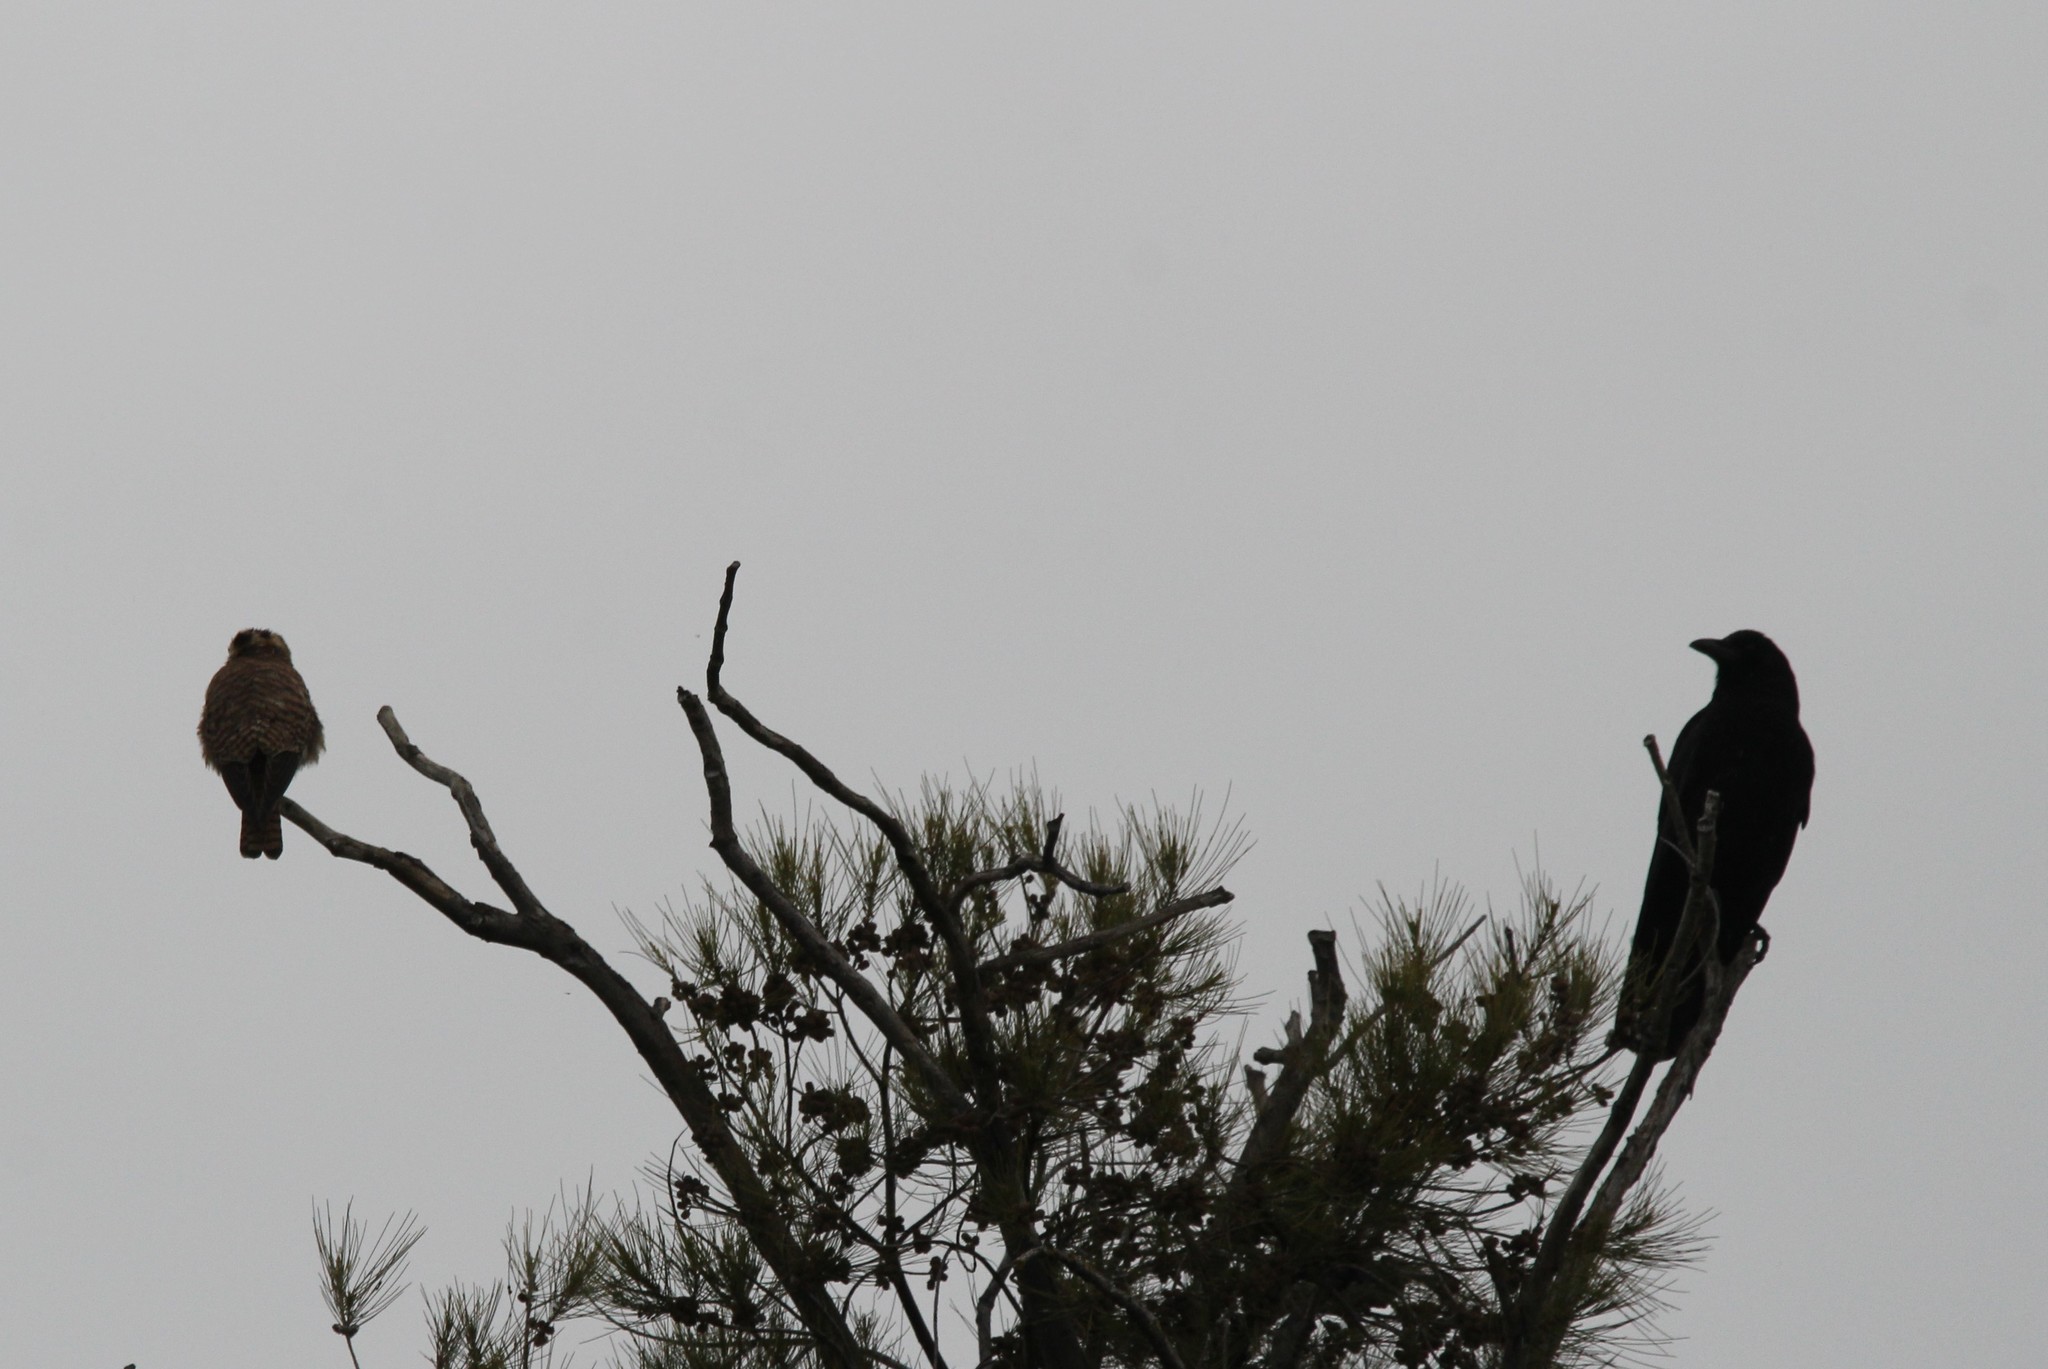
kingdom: Animalia
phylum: Chordata
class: Aves
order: Passeriformes
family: Corvidae
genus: Corvus
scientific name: Corvus corax
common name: Common raven
